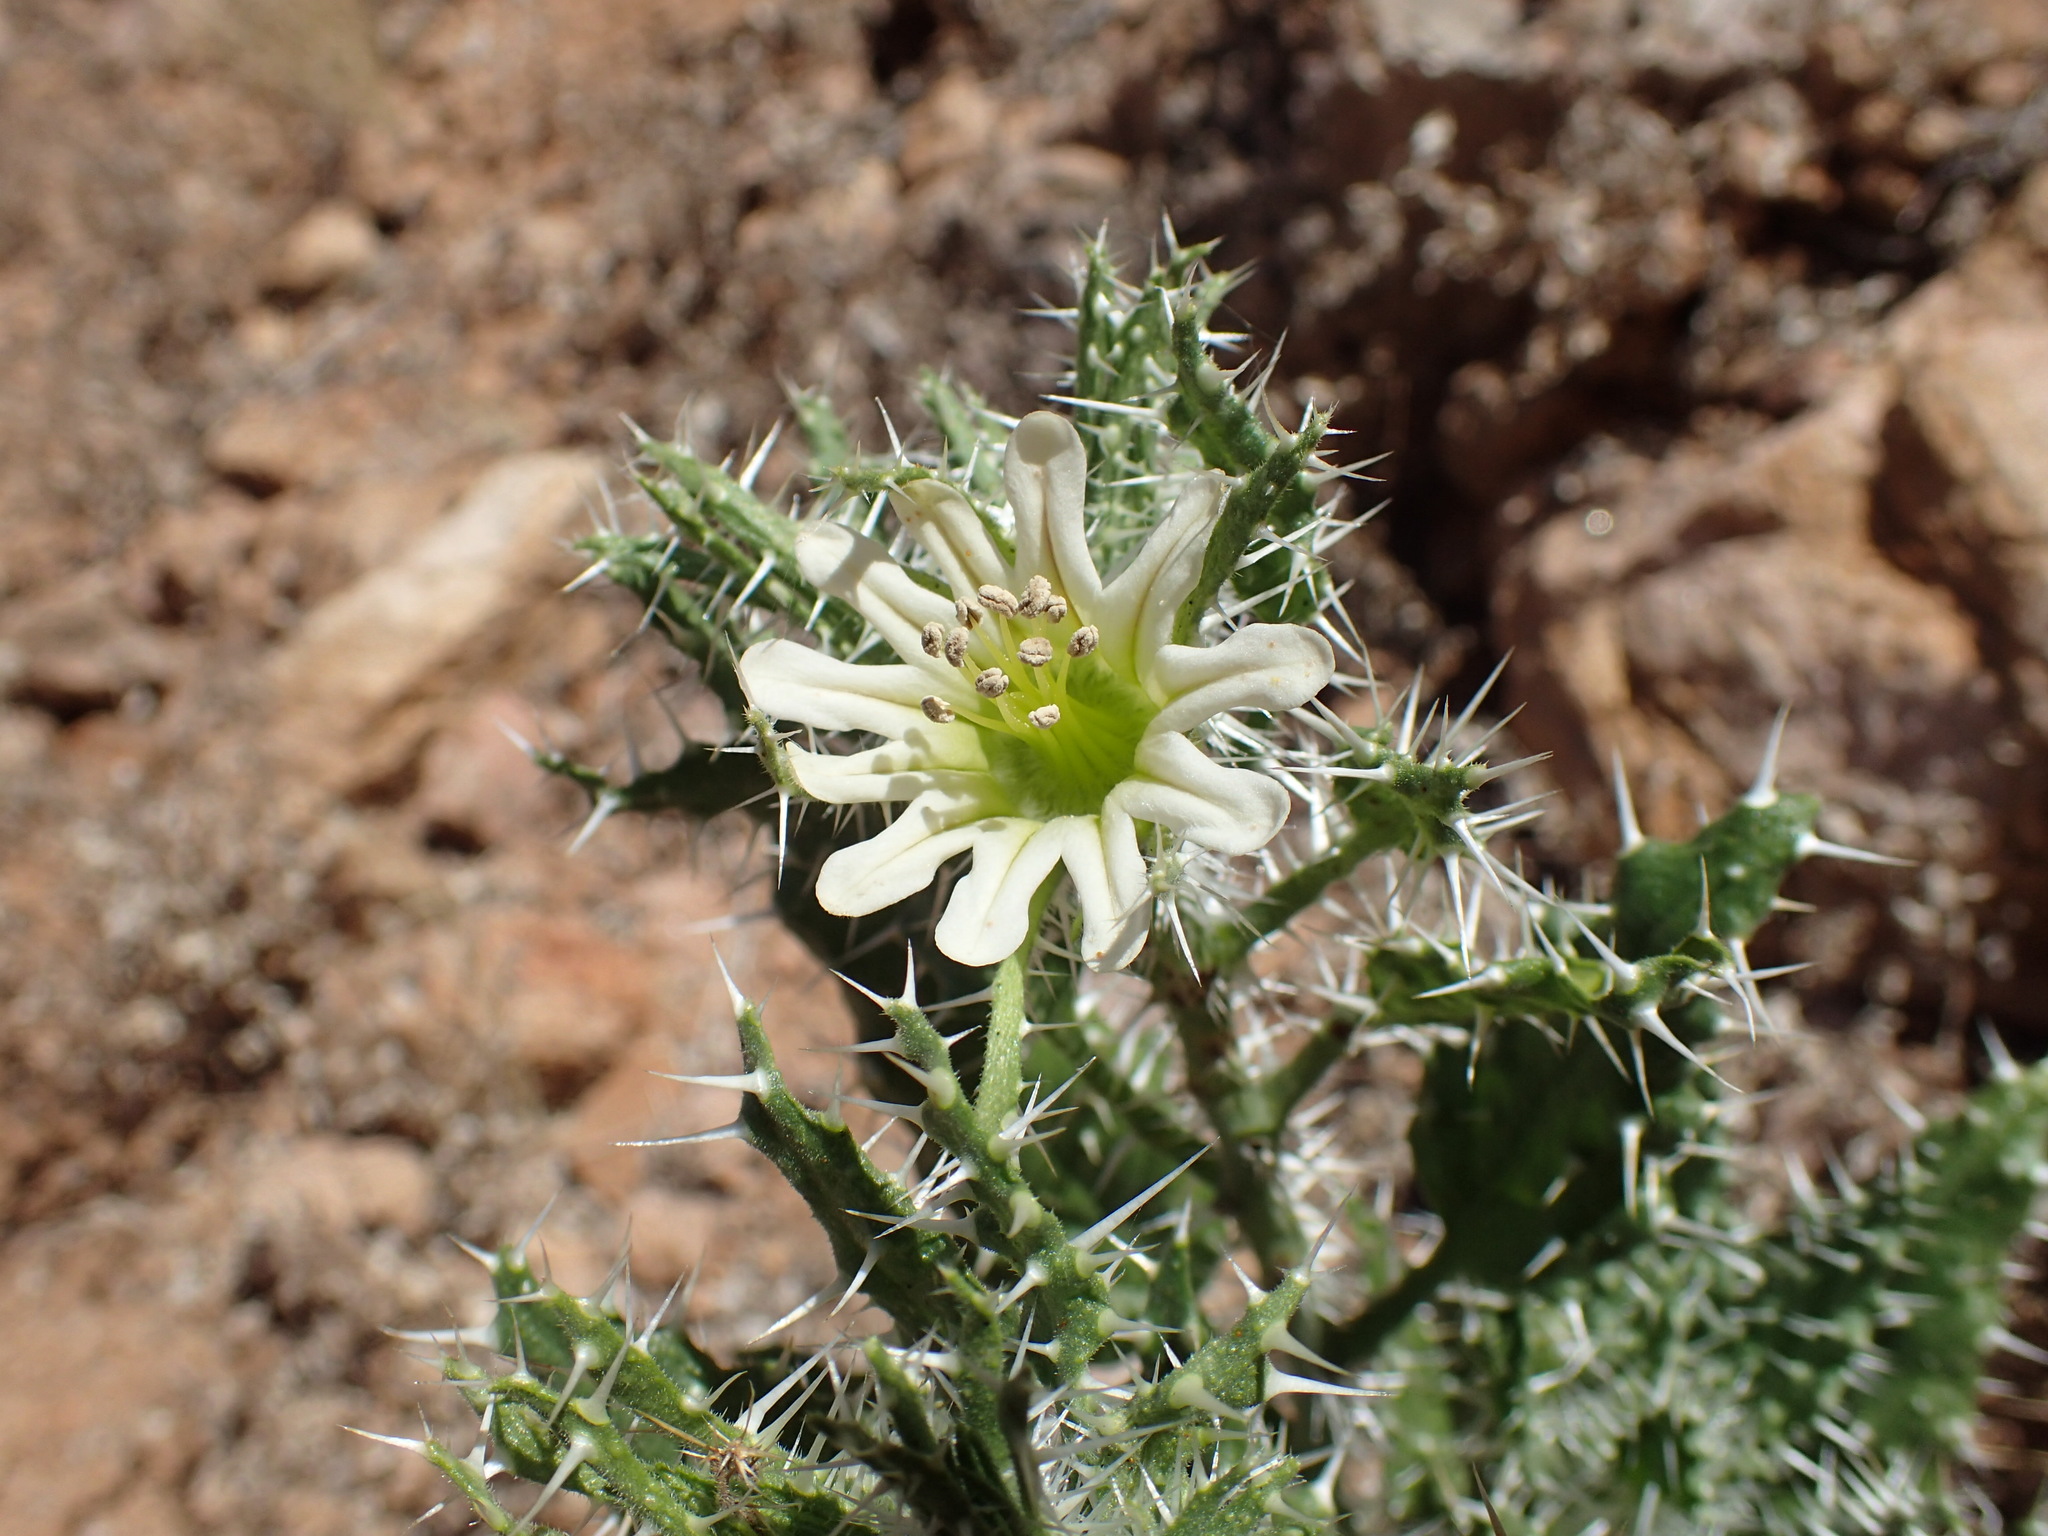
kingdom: Plantae
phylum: Tracheophyta
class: Magnoliopsida
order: Boraginales
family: Boraginaceae
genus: Codon
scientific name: Codon royenii
